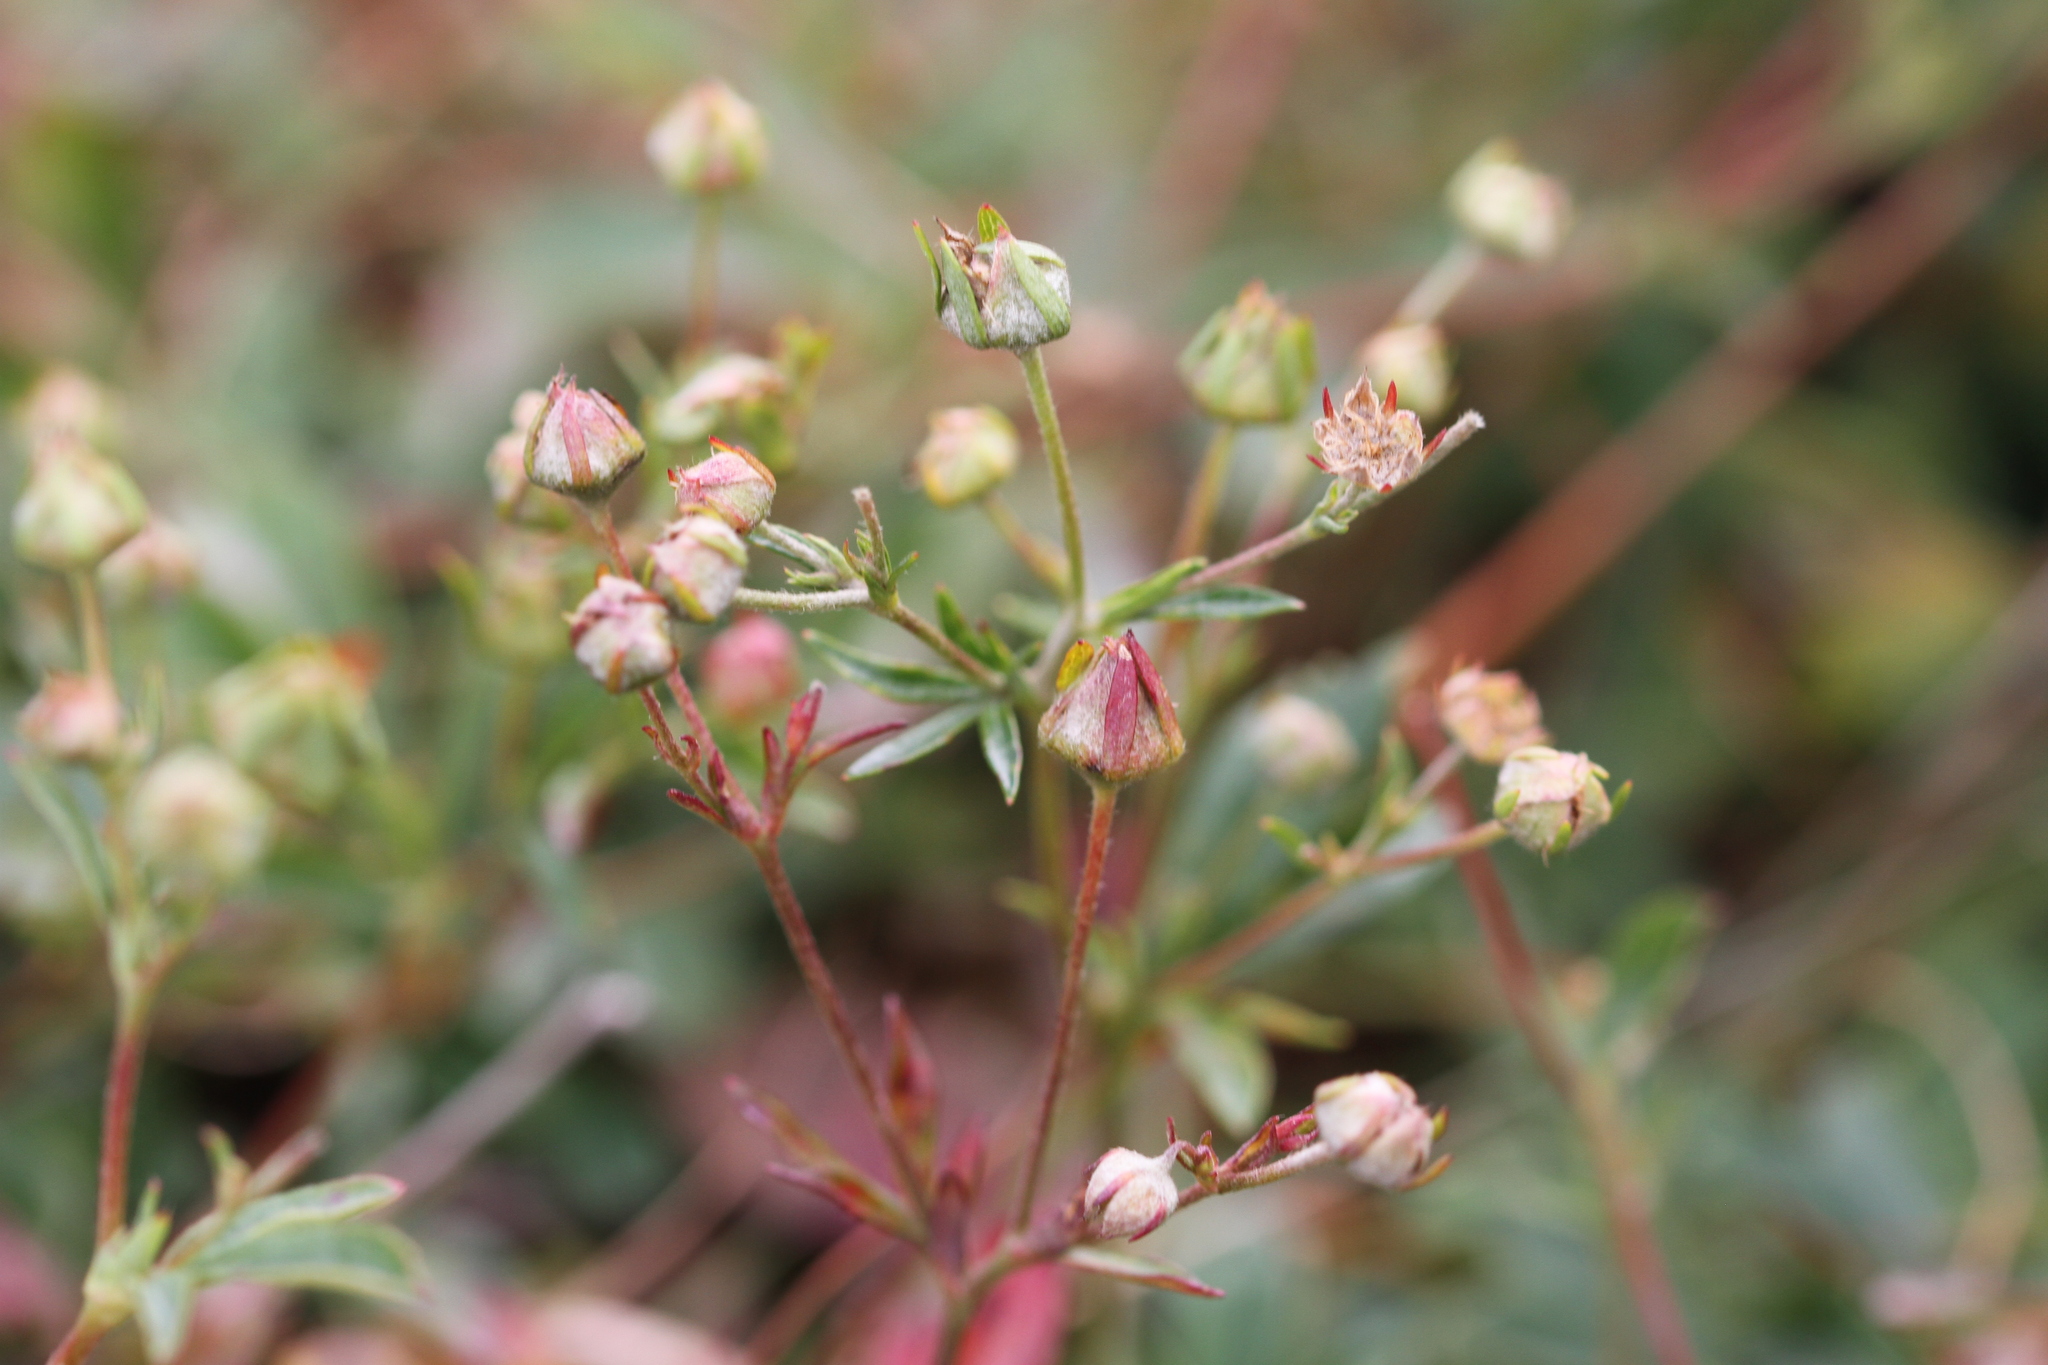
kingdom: Plantae
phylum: Tracheophyta
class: Magnoliopsida
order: Rosales
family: Rosaceae
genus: Sibbaldia
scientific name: Sibbaldia tridentata
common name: Three-toothed cinquefoil
